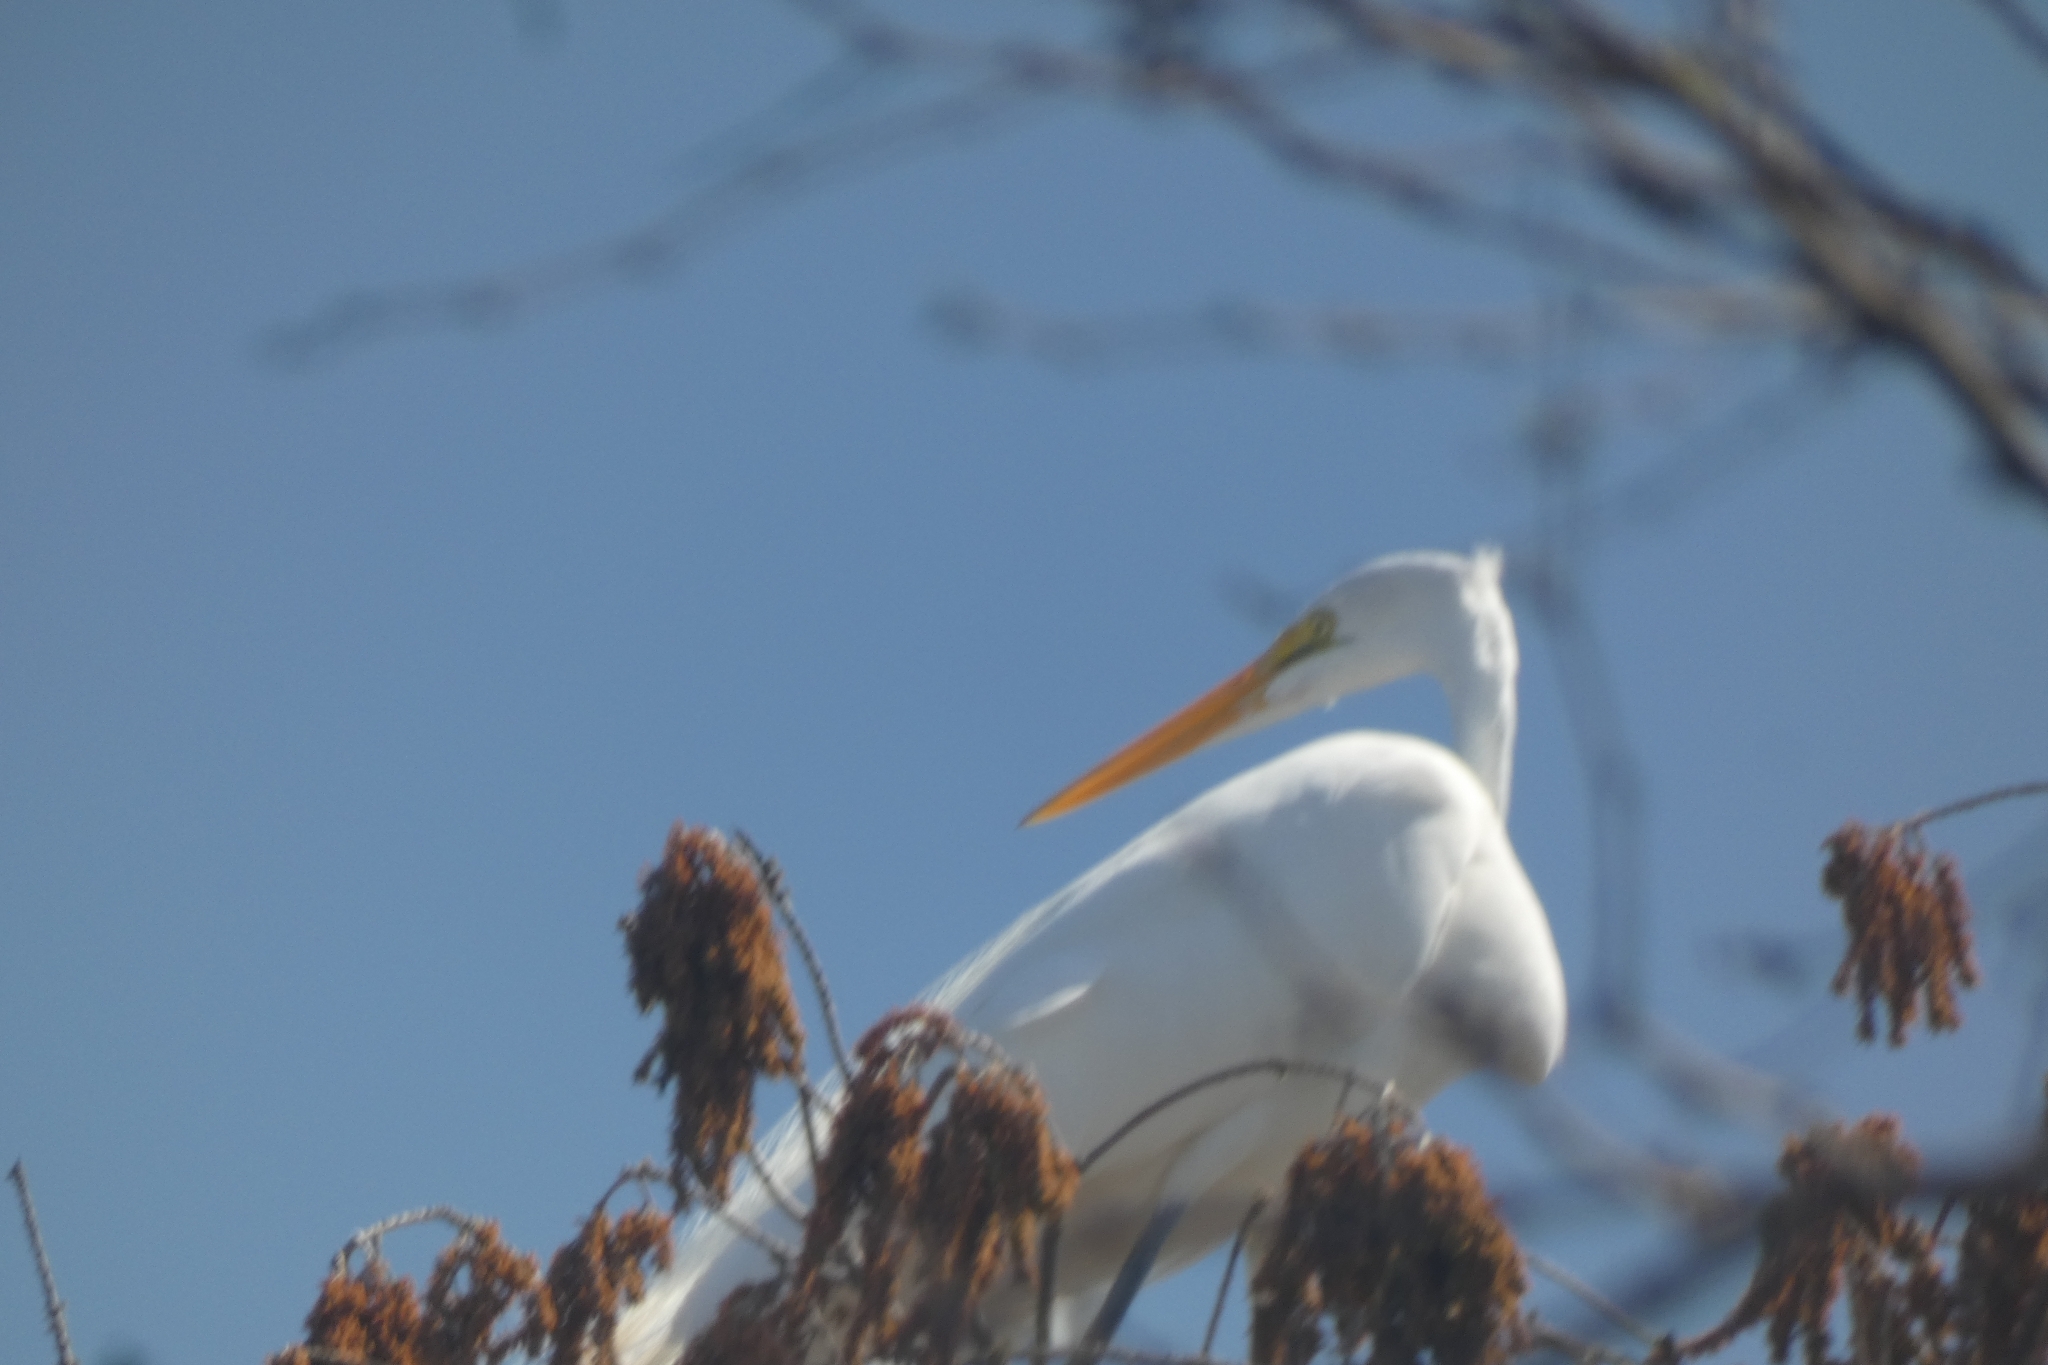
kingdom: Animalia
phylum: Chordata
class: Aves
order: Pelecaniformes
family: Ardeidae
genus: Ardea
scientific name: Ardea alba
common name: Great egret
